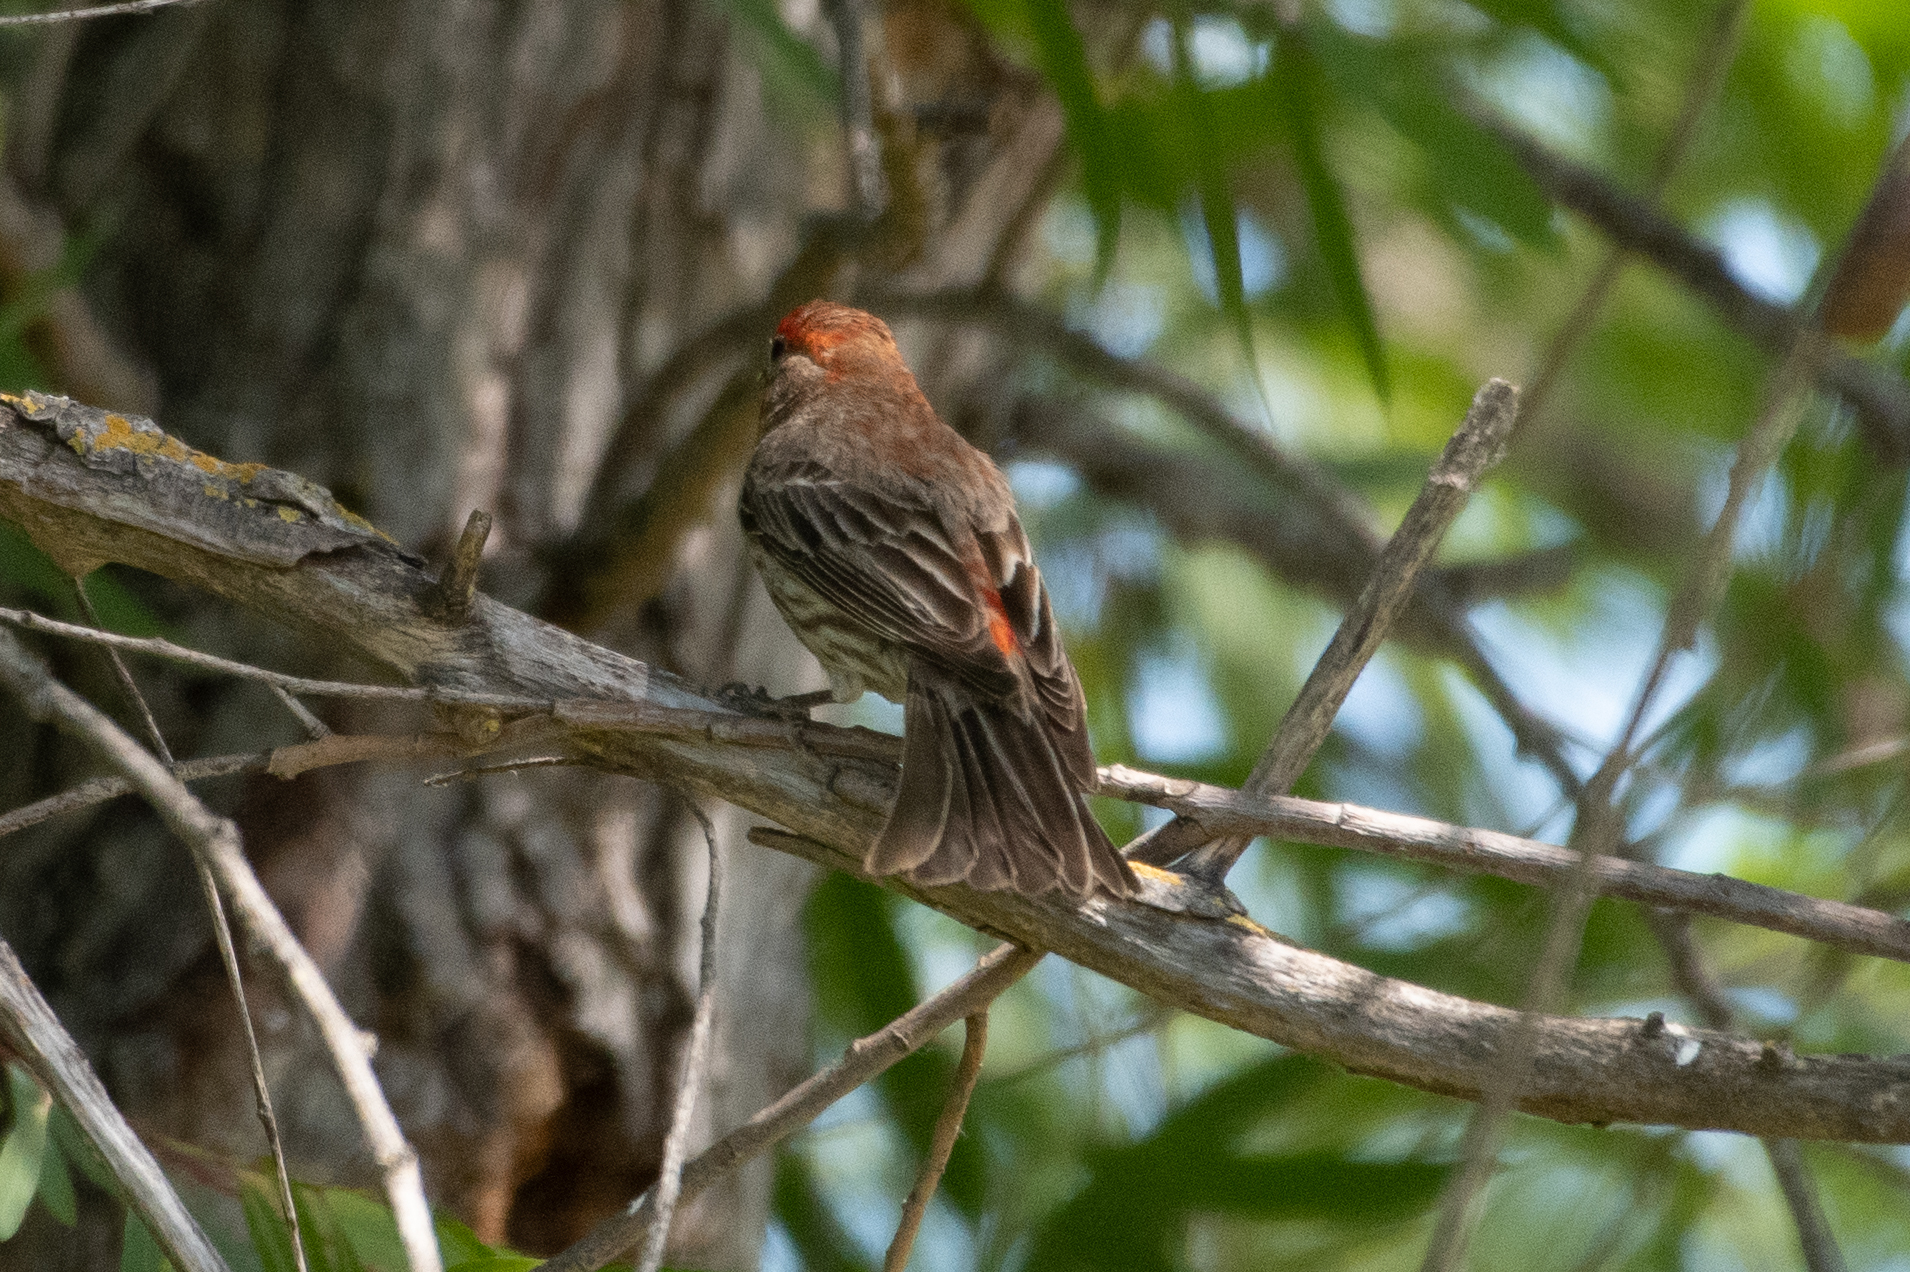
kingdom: Animalia
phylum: Chordata
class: Aves
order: Passeriformes
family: Fringillidae
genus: Haemorhous
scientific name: Haemorhous mexicanus
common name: House finch
